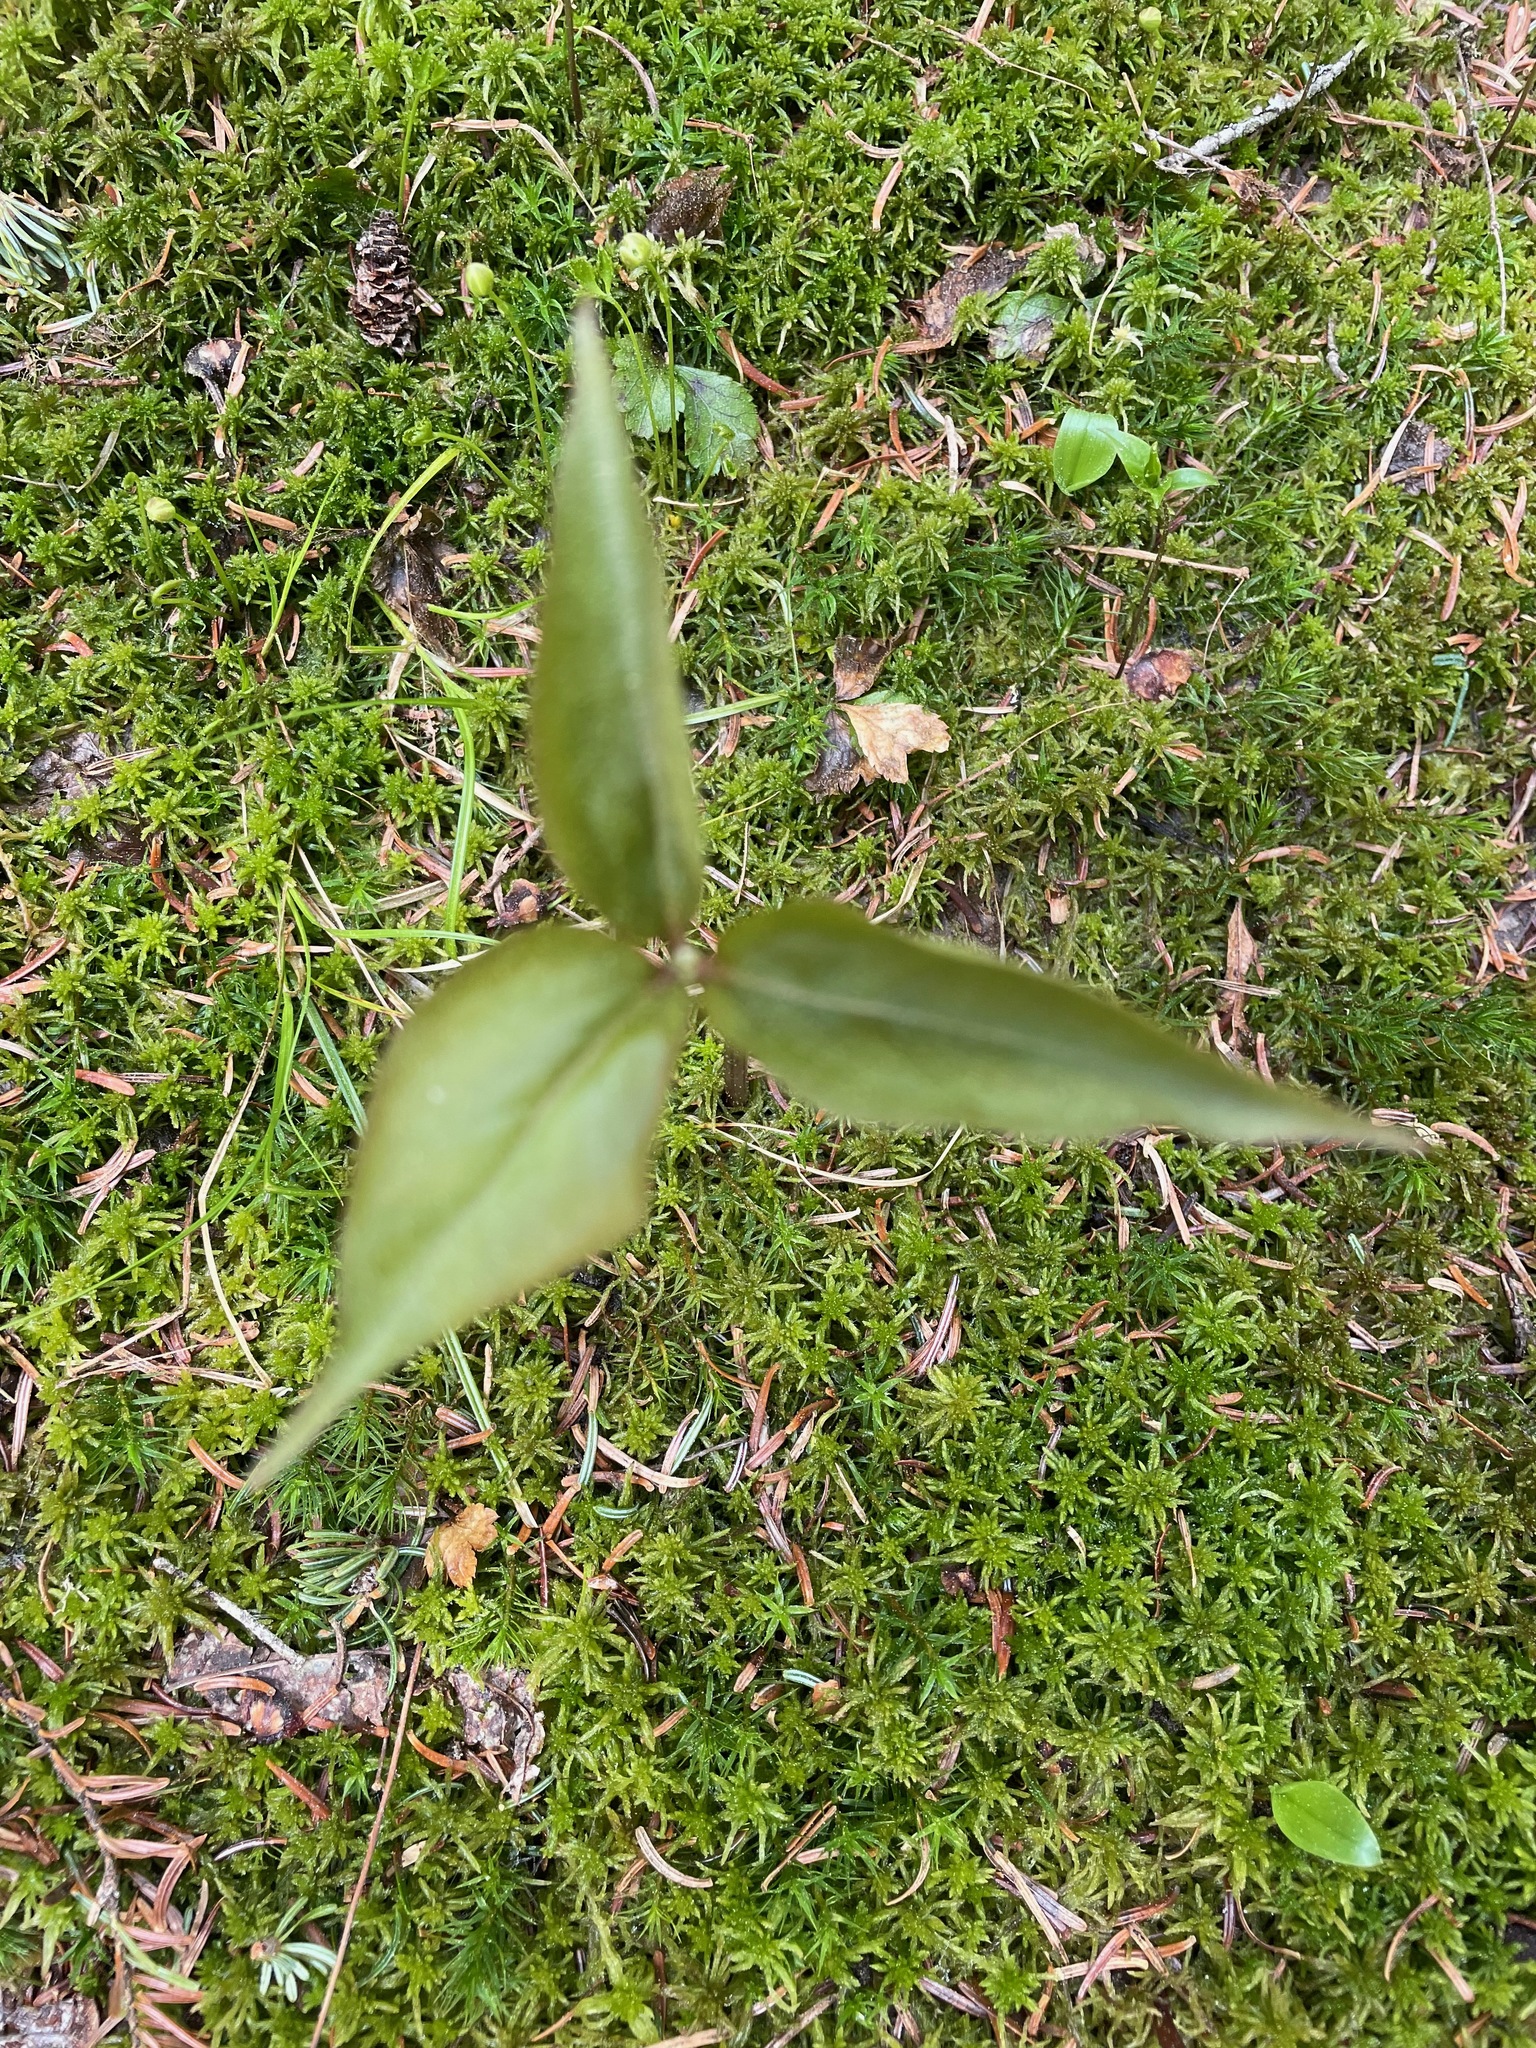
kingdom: Plantae
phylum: Tracheophyta
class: Liliopsida
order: Liliales
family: Melanthiaceae
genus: Trillium
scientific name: Trillium undulatum
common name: Paint trillium
